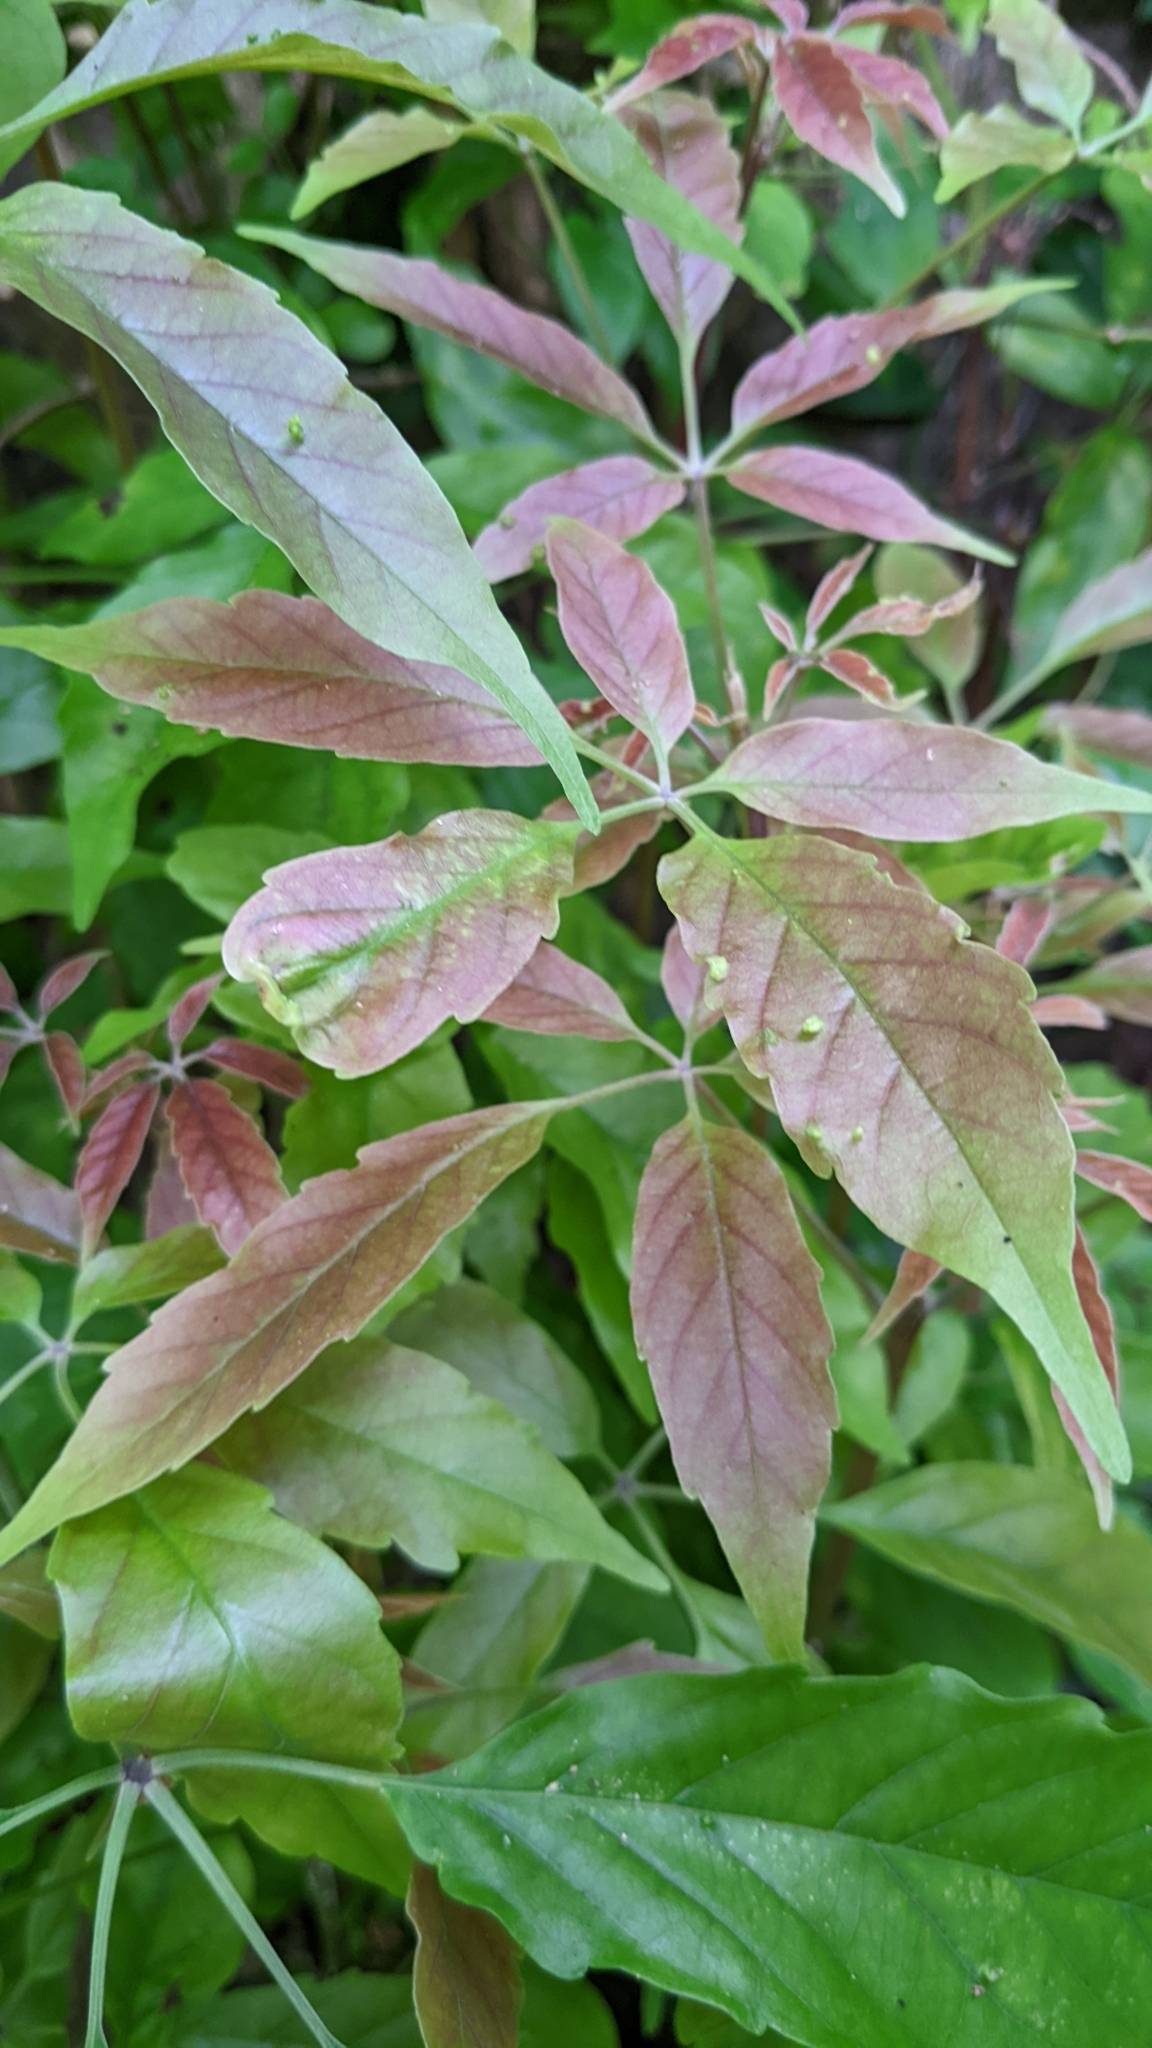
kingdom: Plantae
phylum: Tracheophyta
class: Magnoliopsida
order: Lamiales
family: Lamiaceae
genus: Vitex
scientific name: Vitex quinata
